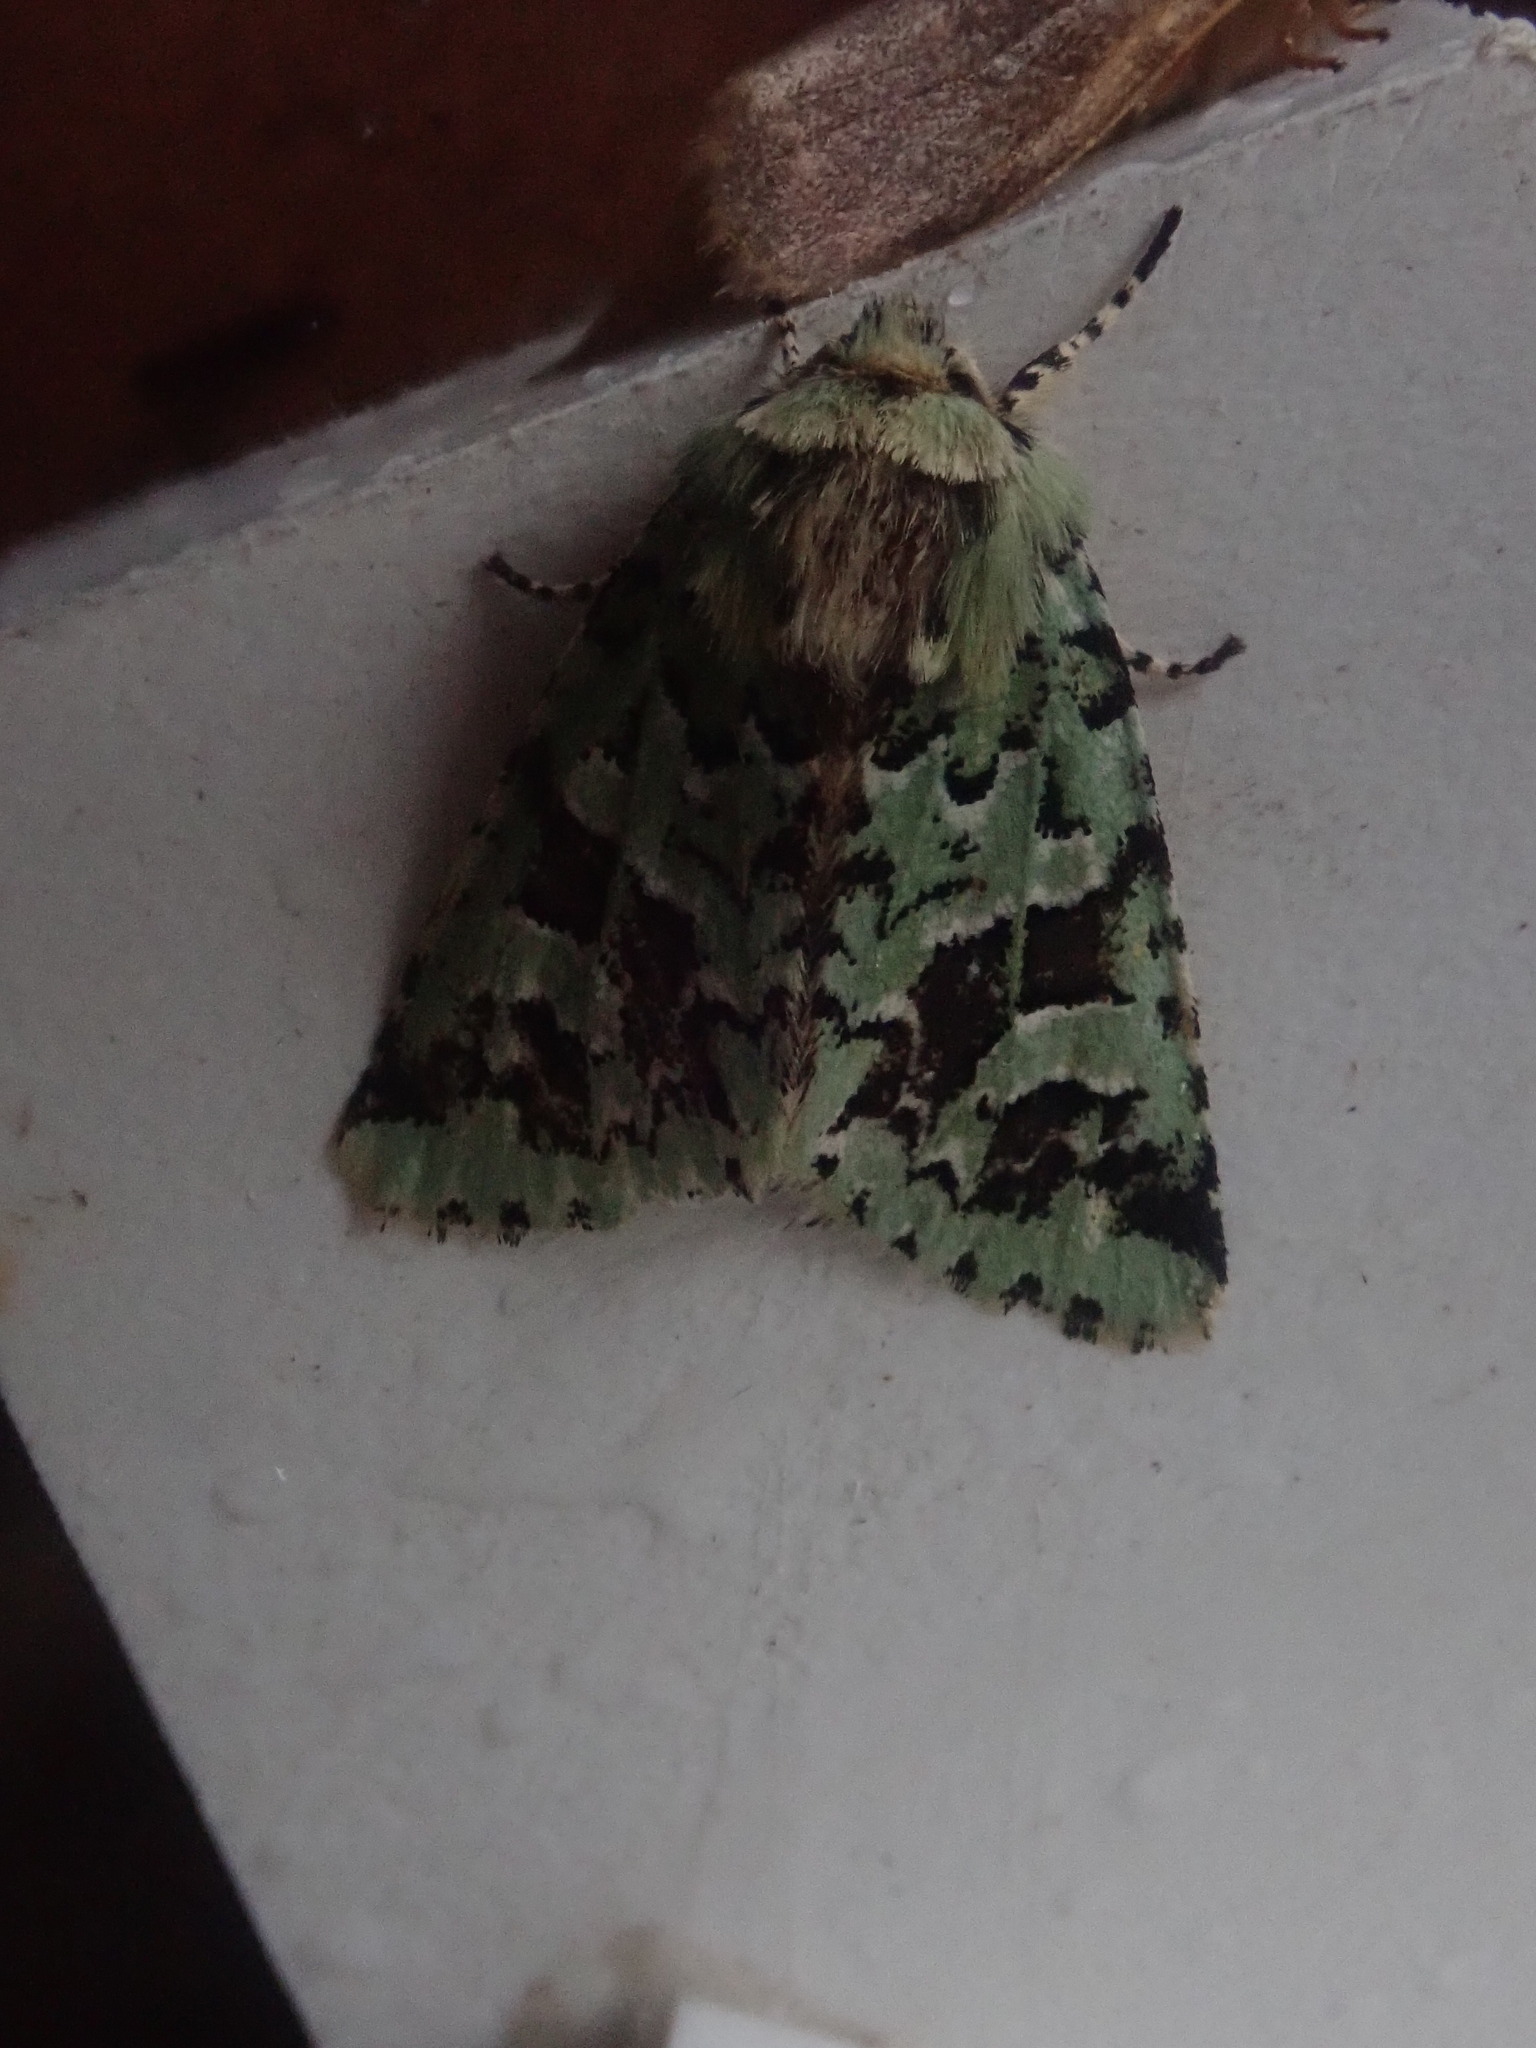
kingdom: Animalia
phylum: Arthropoda
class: Insecta
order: Lepidoptera
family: Noctuidae
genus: Feralia
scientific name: Feralia comstocki
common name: Comstock's sallow
